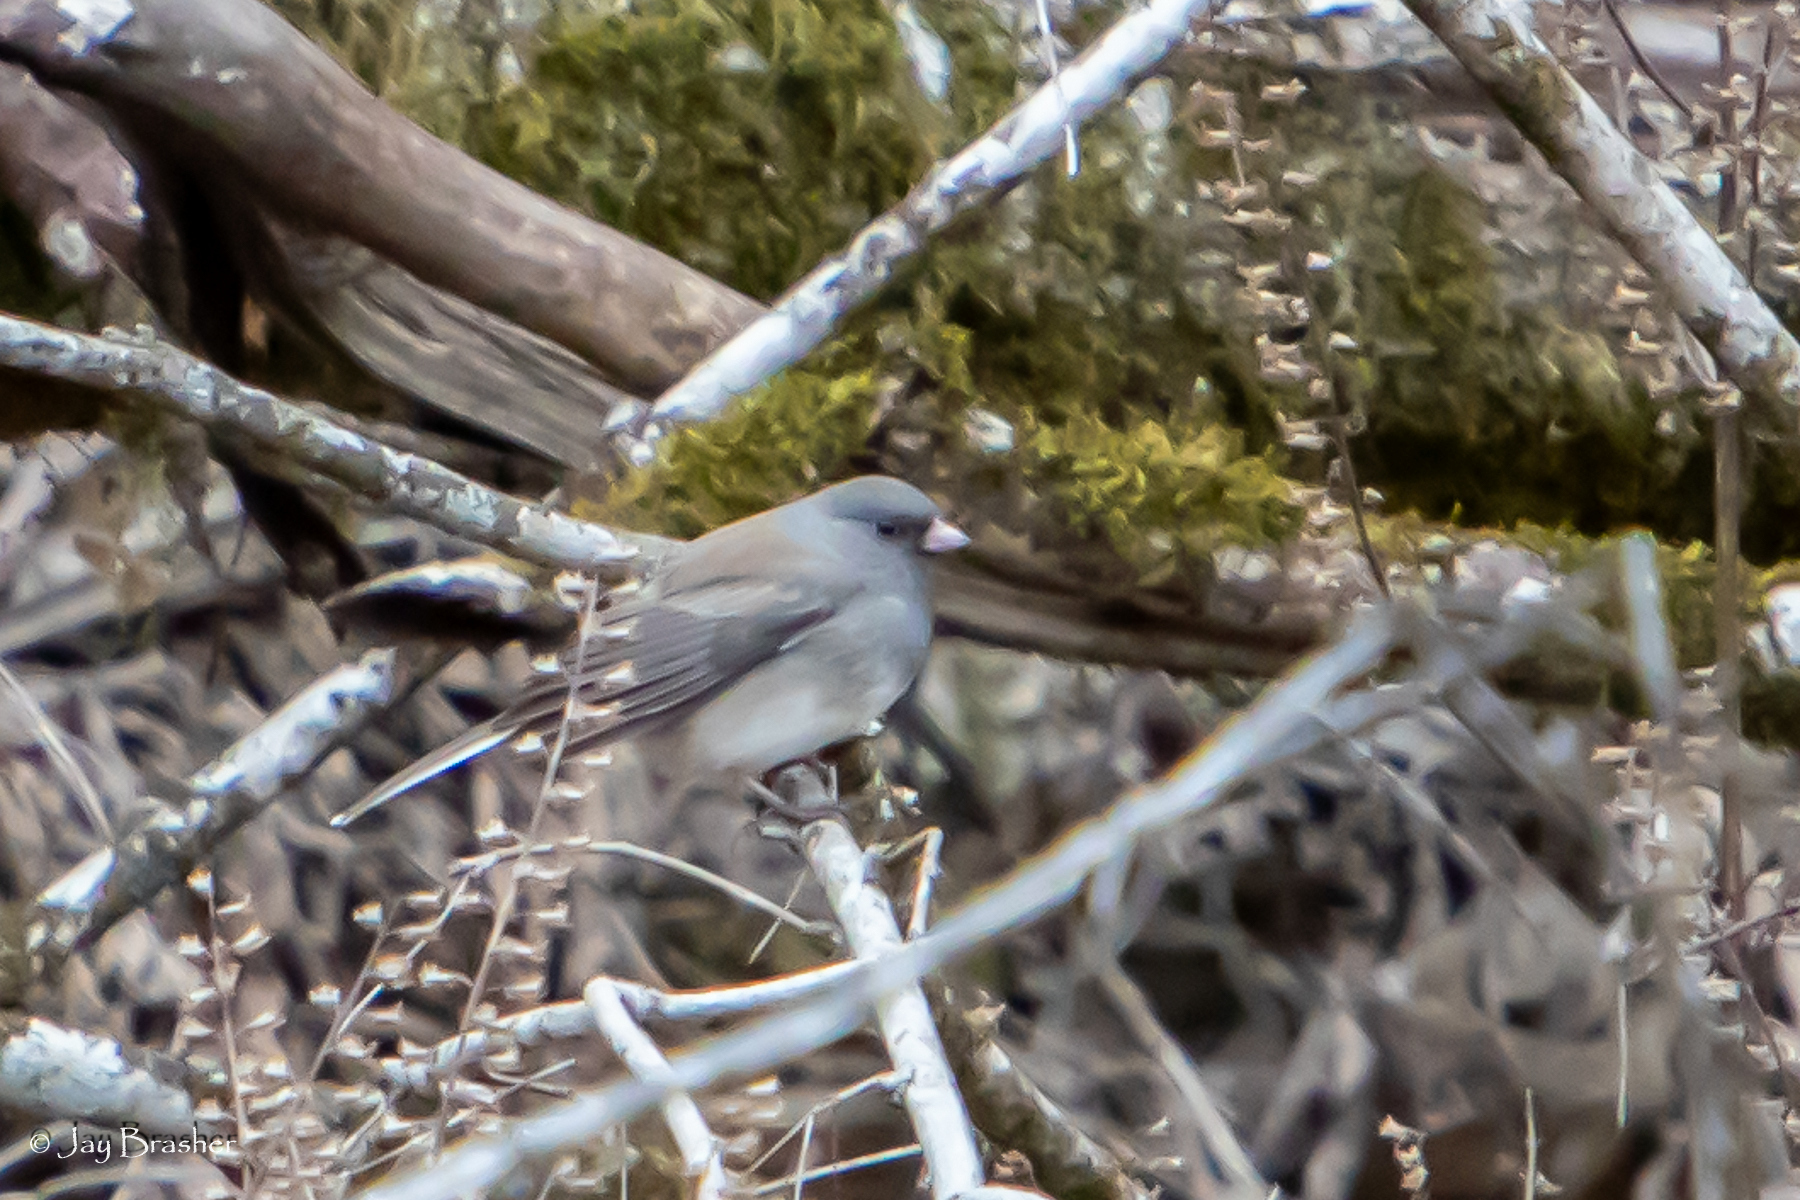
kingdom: Animalia
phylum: Chordata
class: Aves
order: Passeriformes
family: Passerellidae
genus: Junco
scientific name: Junco hyemalis
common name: Dark-eyed junco
